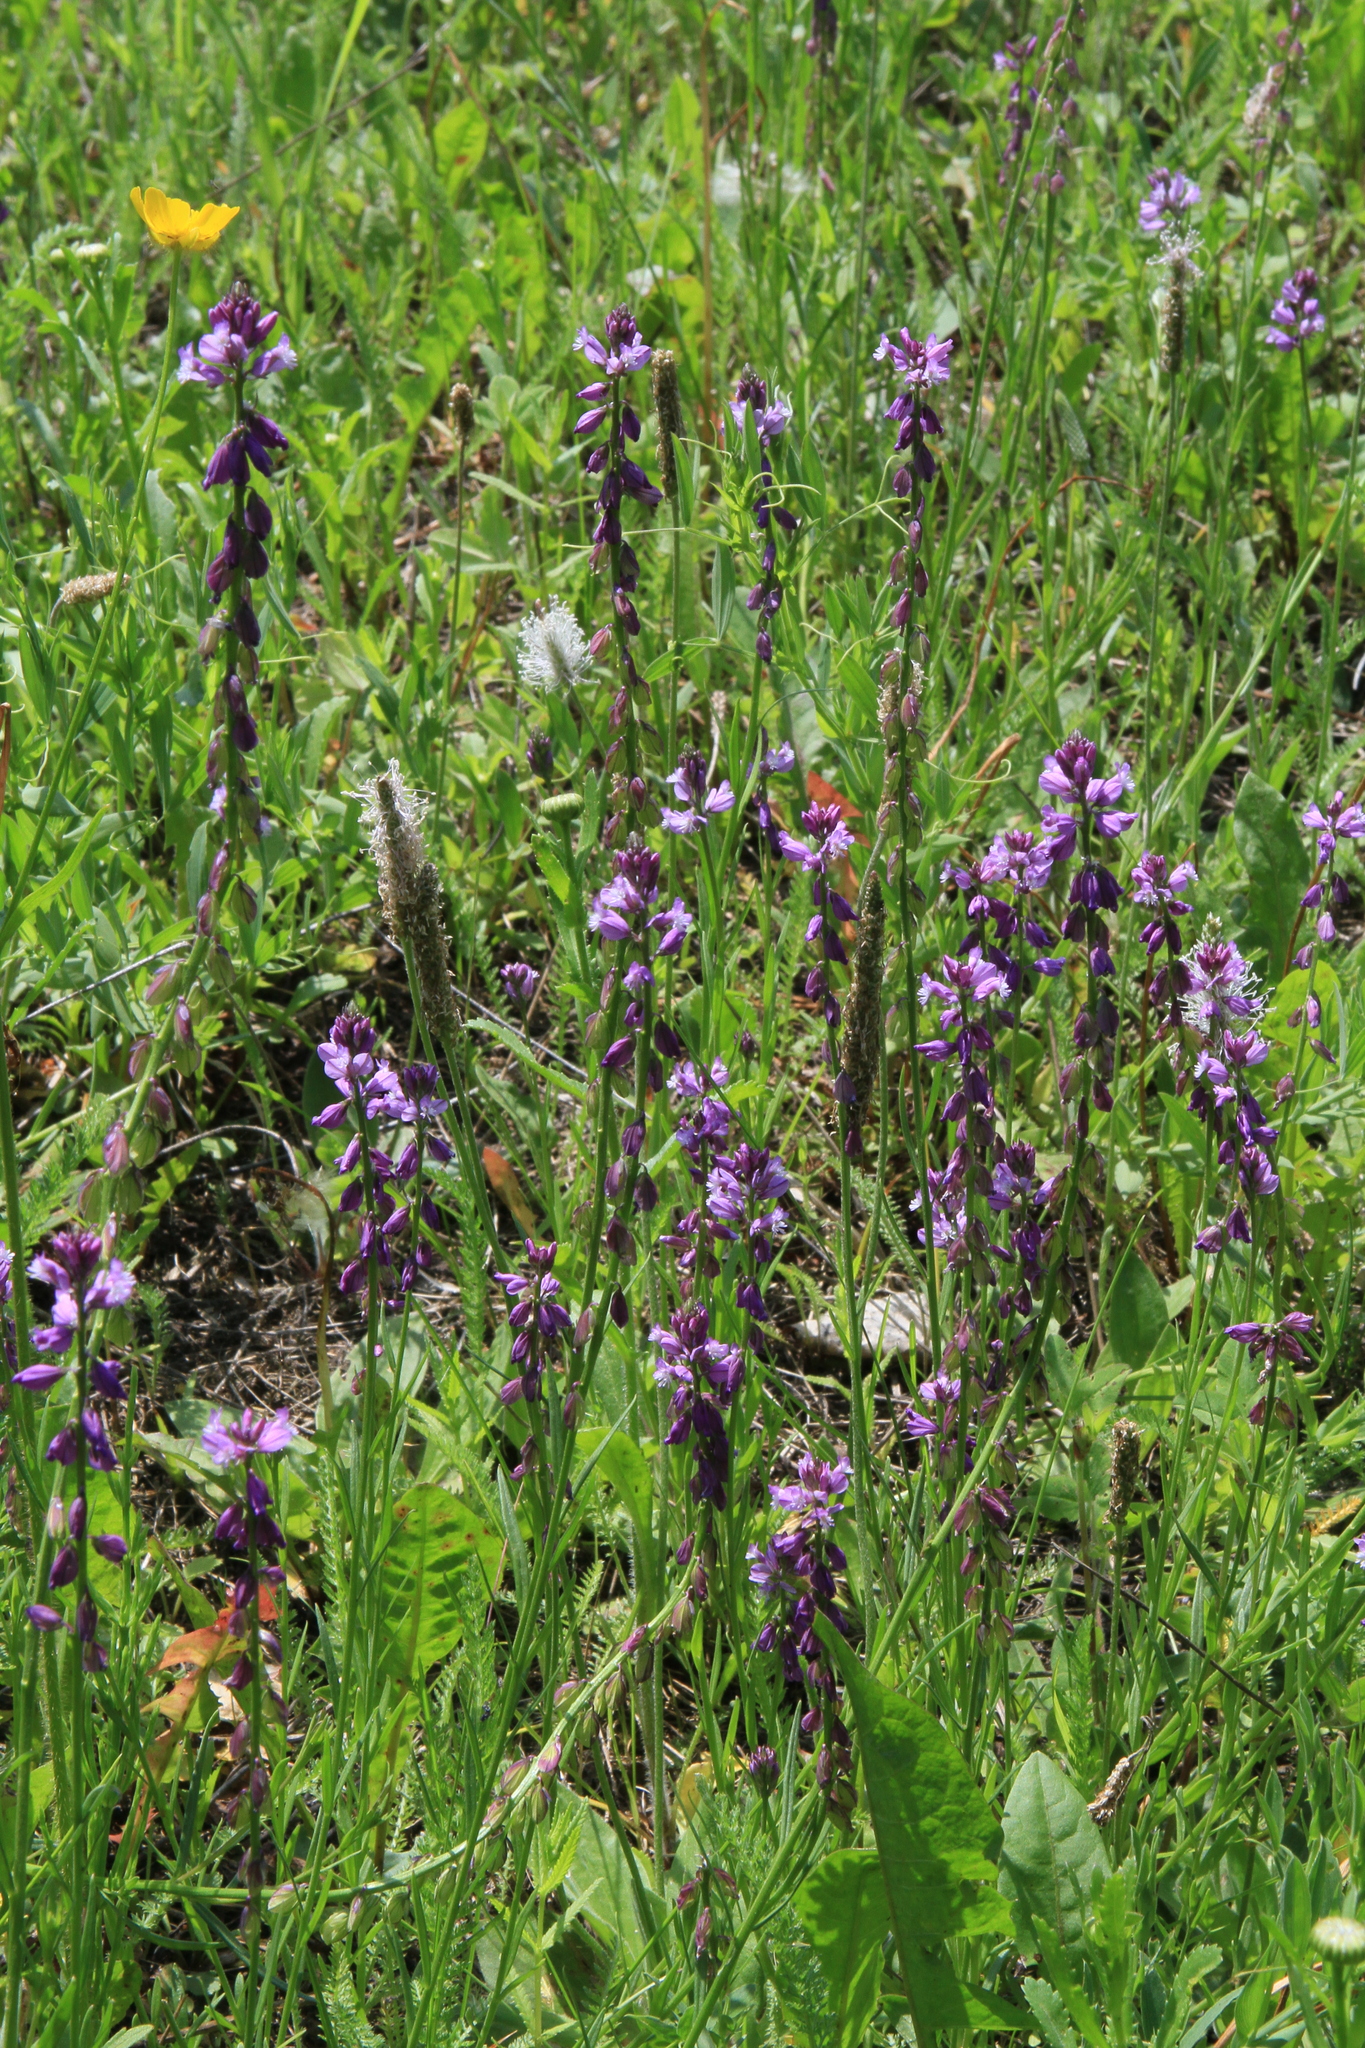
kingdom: Plantae
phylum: Tracheophyta
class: Magnoliopsida
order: Fabales
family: Polygalaceae
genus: Polygala
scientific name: Polygala comosa
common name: Tufted milkwort
